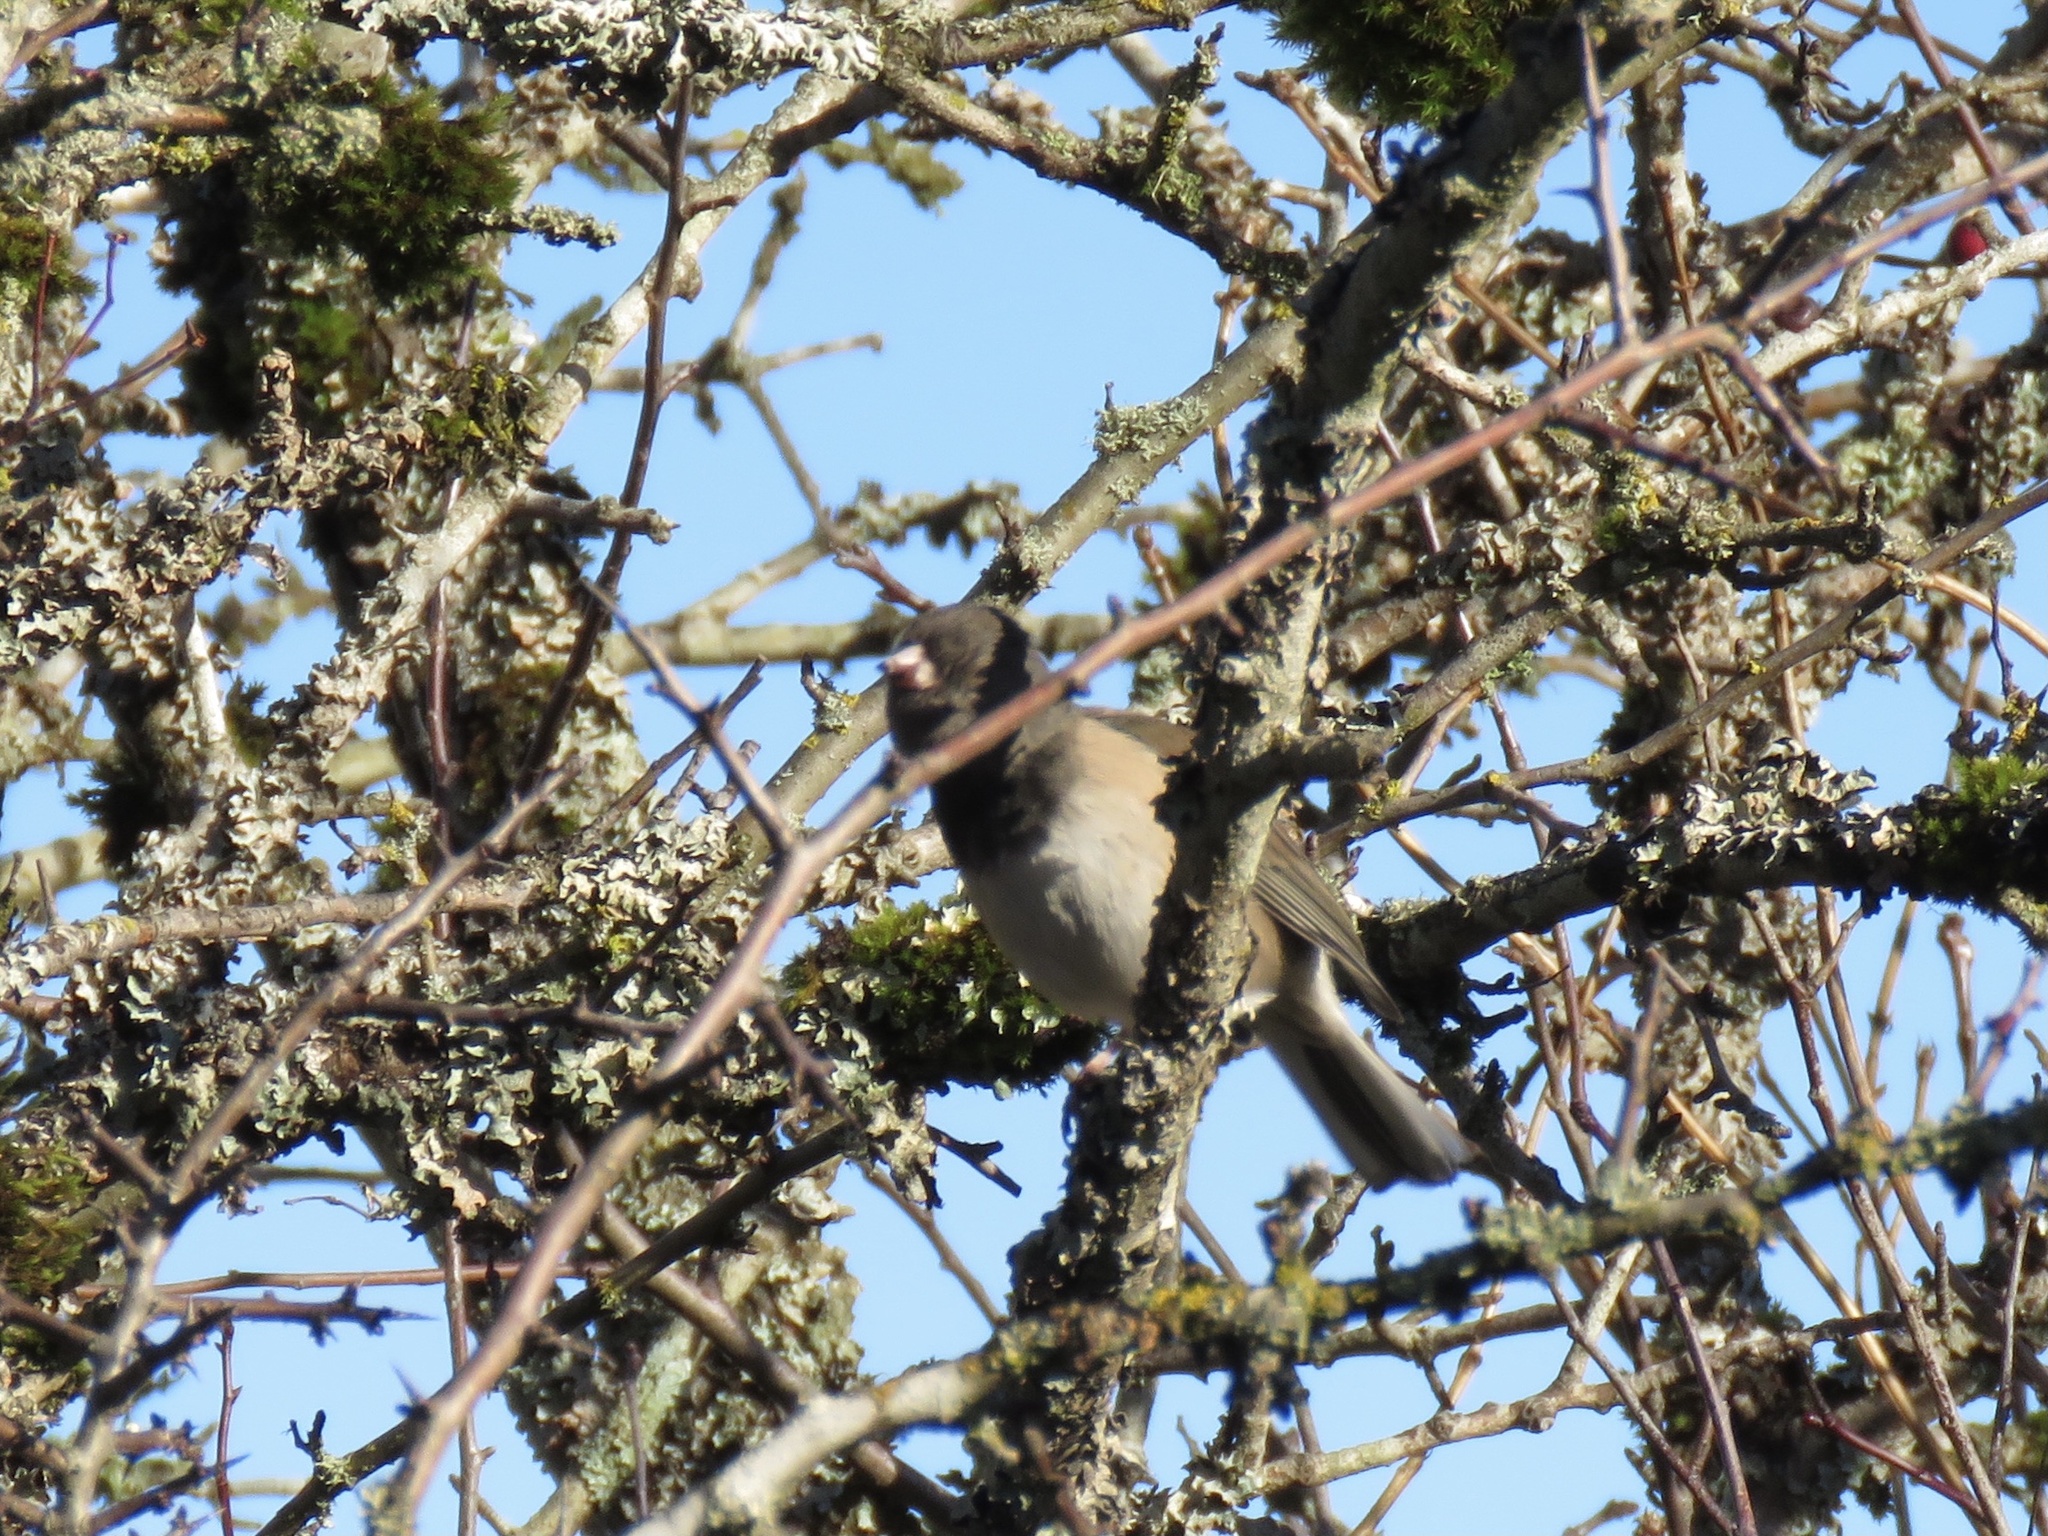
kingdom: Animalia
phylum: Chordata
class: Aves
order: Passeriformes
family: Passerellidae
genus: Junco
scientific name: Junco hyemalis
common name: Dark-eyed junco
